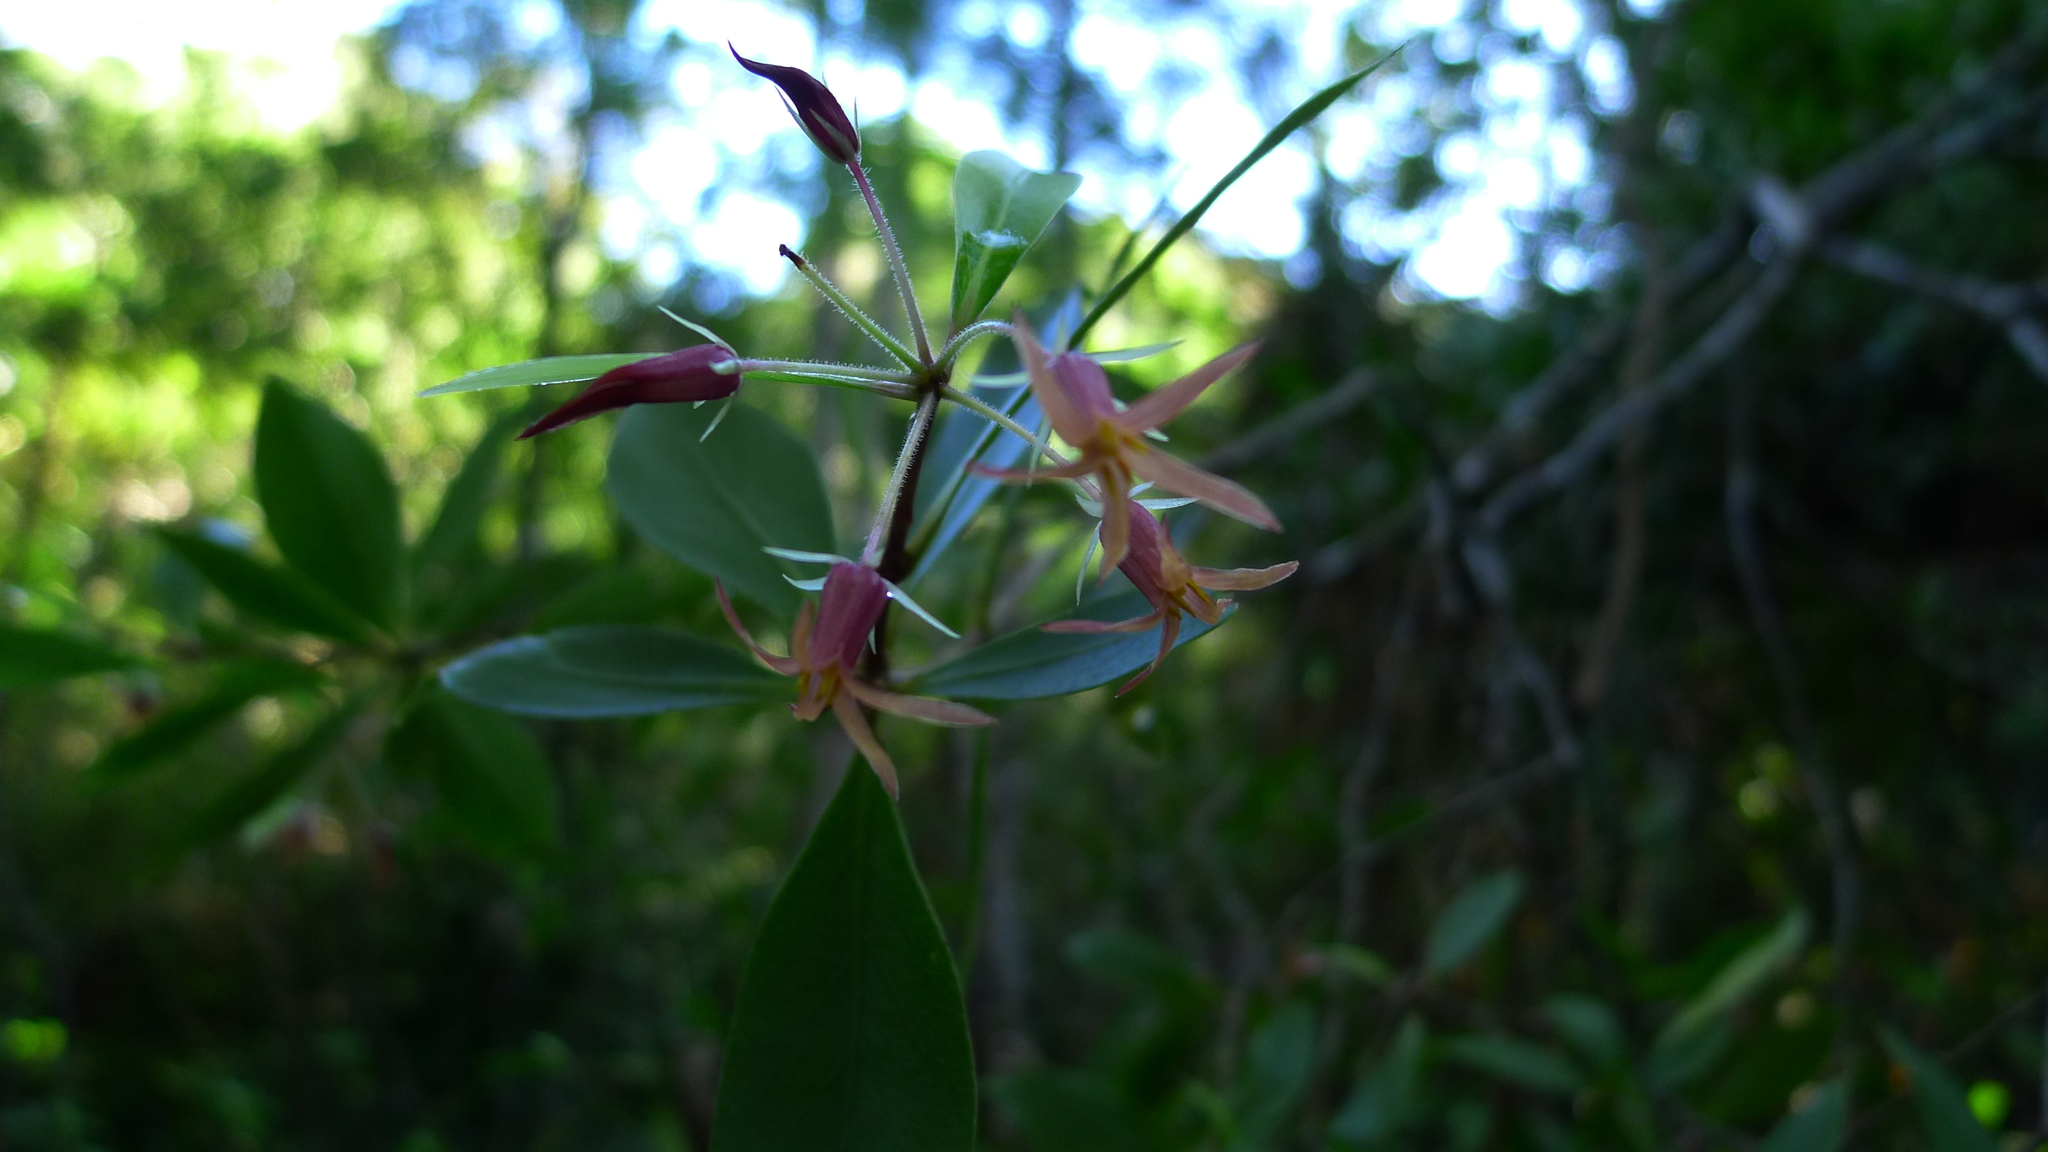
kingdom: Plantae
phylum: Tracheophyta
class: Magnoliopsida
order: Apiales
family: Pittosporaceae
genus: Pittosporum
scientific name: Pittosporum cornifolium
